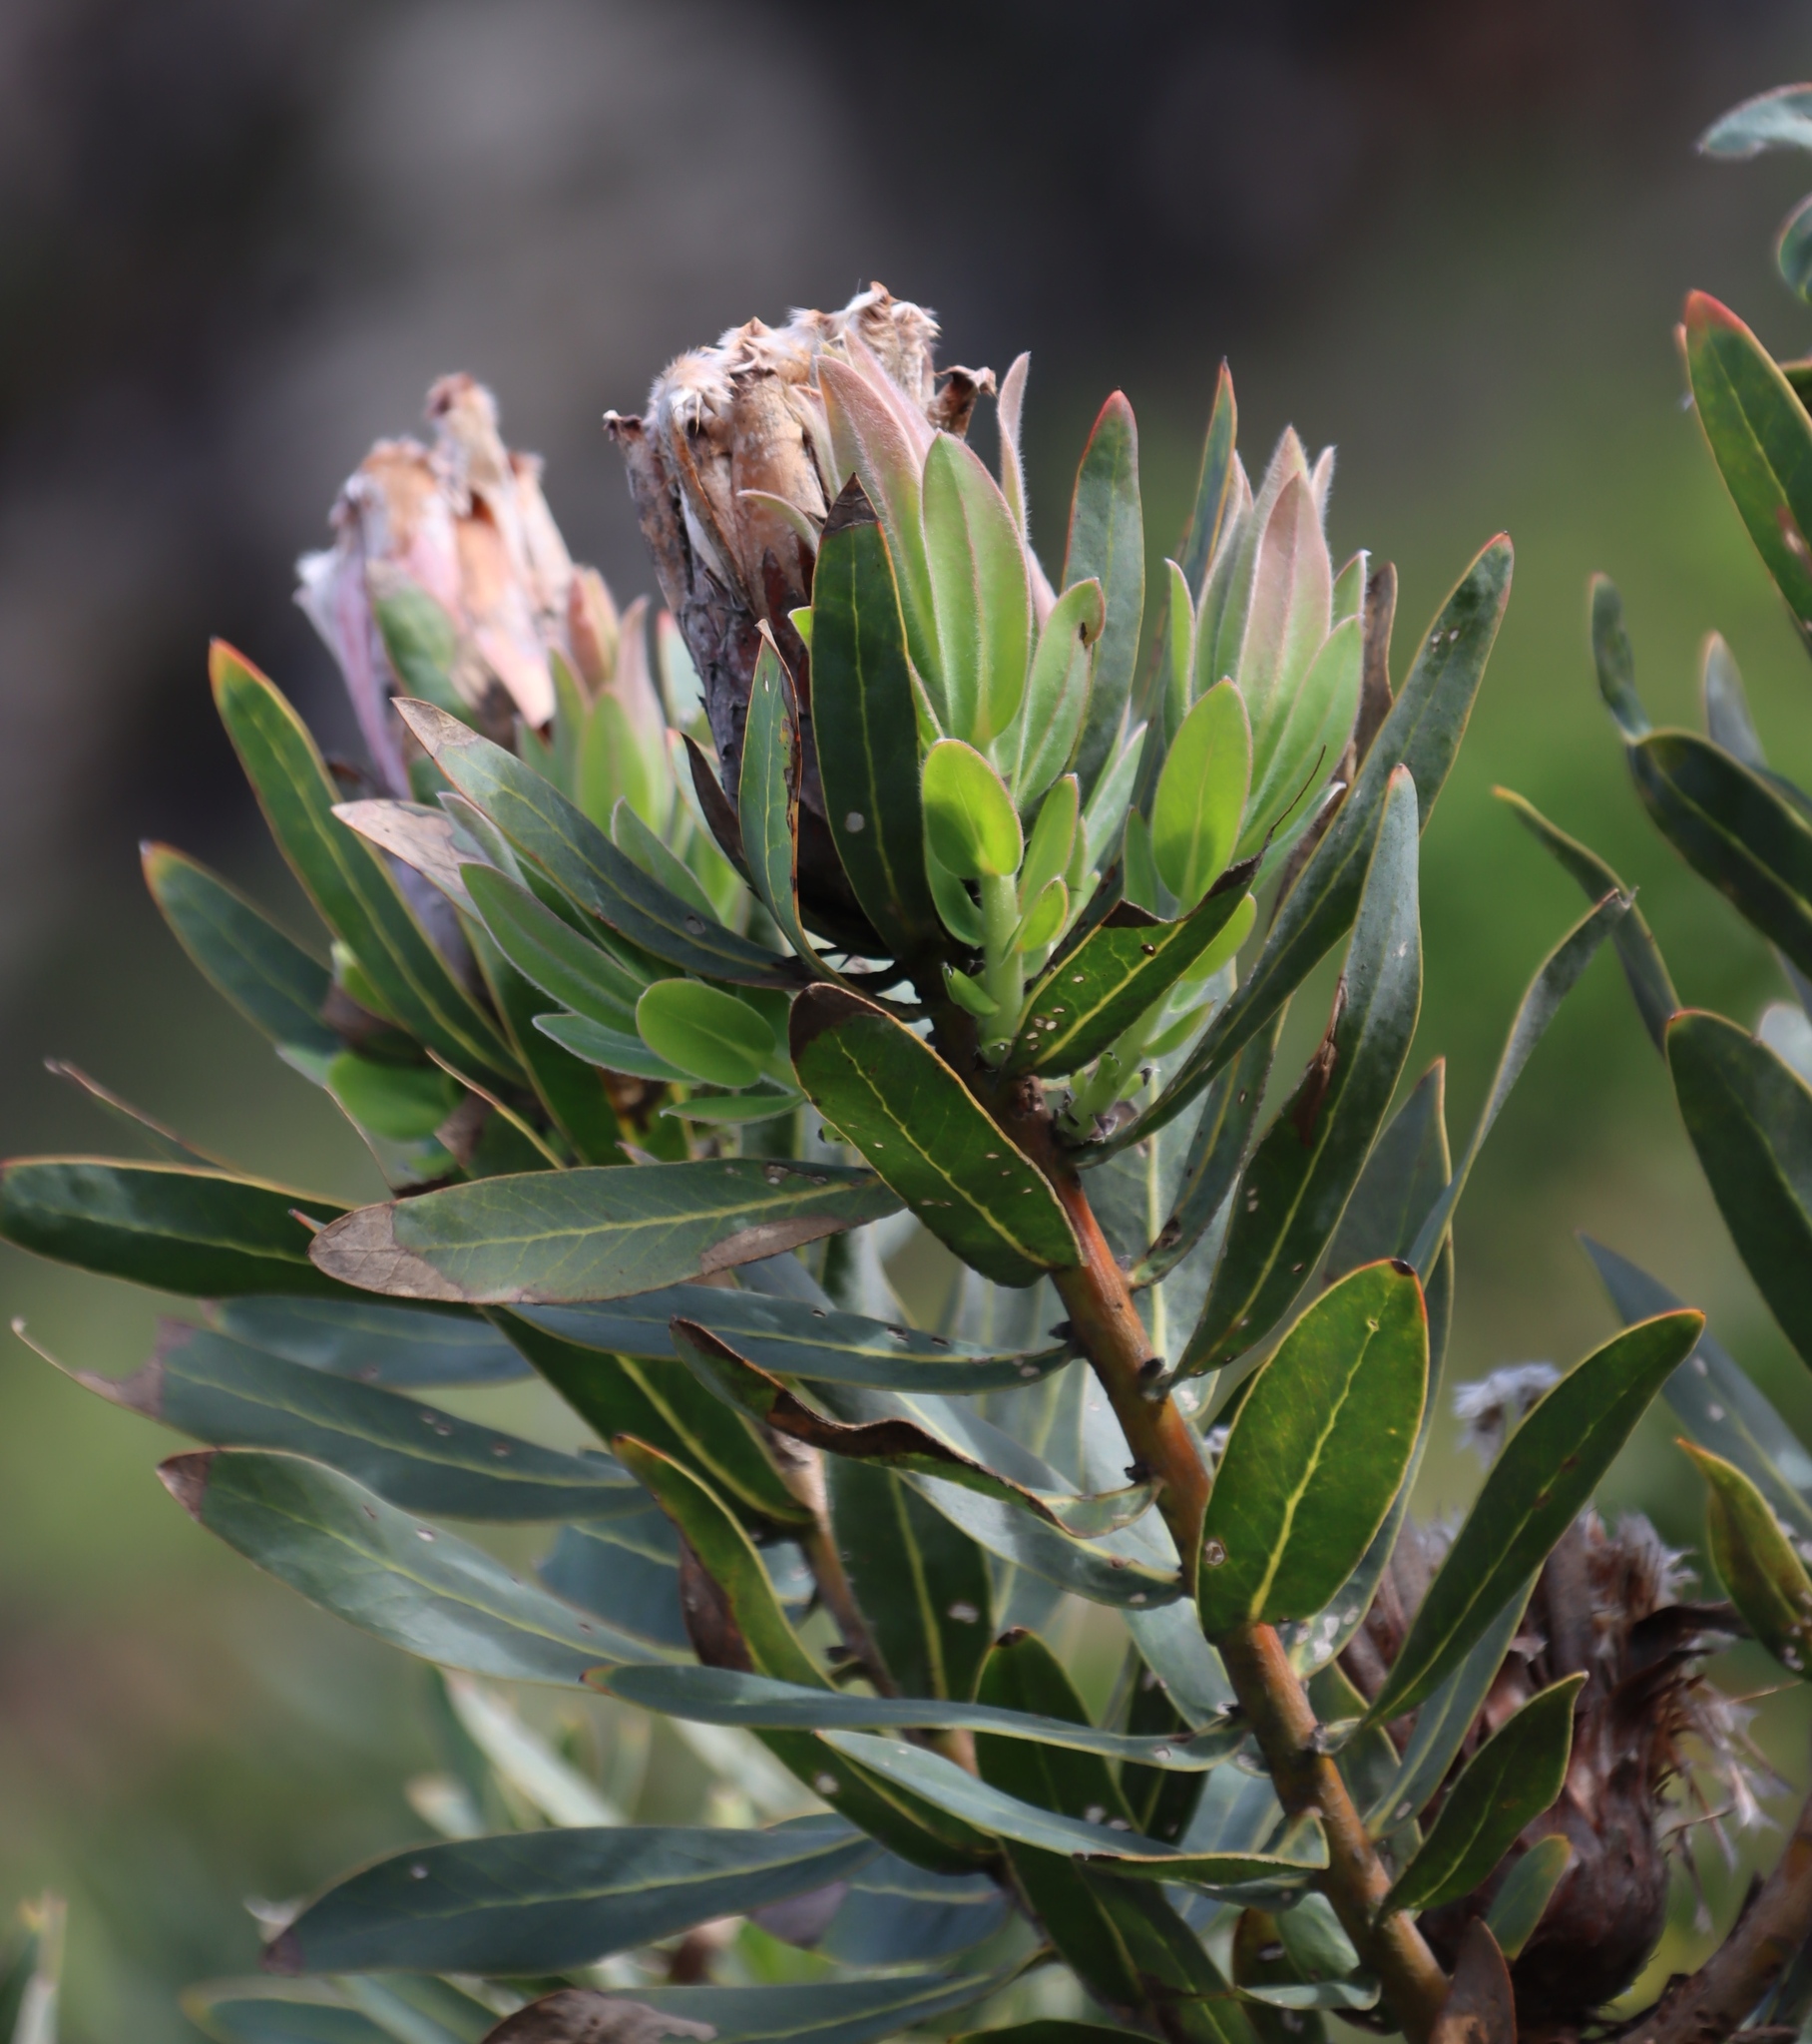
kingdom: Plantae
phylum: Tracheophyta
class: Magnoliopsida
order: Proteales
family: Proteaceae
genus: Protea
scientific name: Protea
